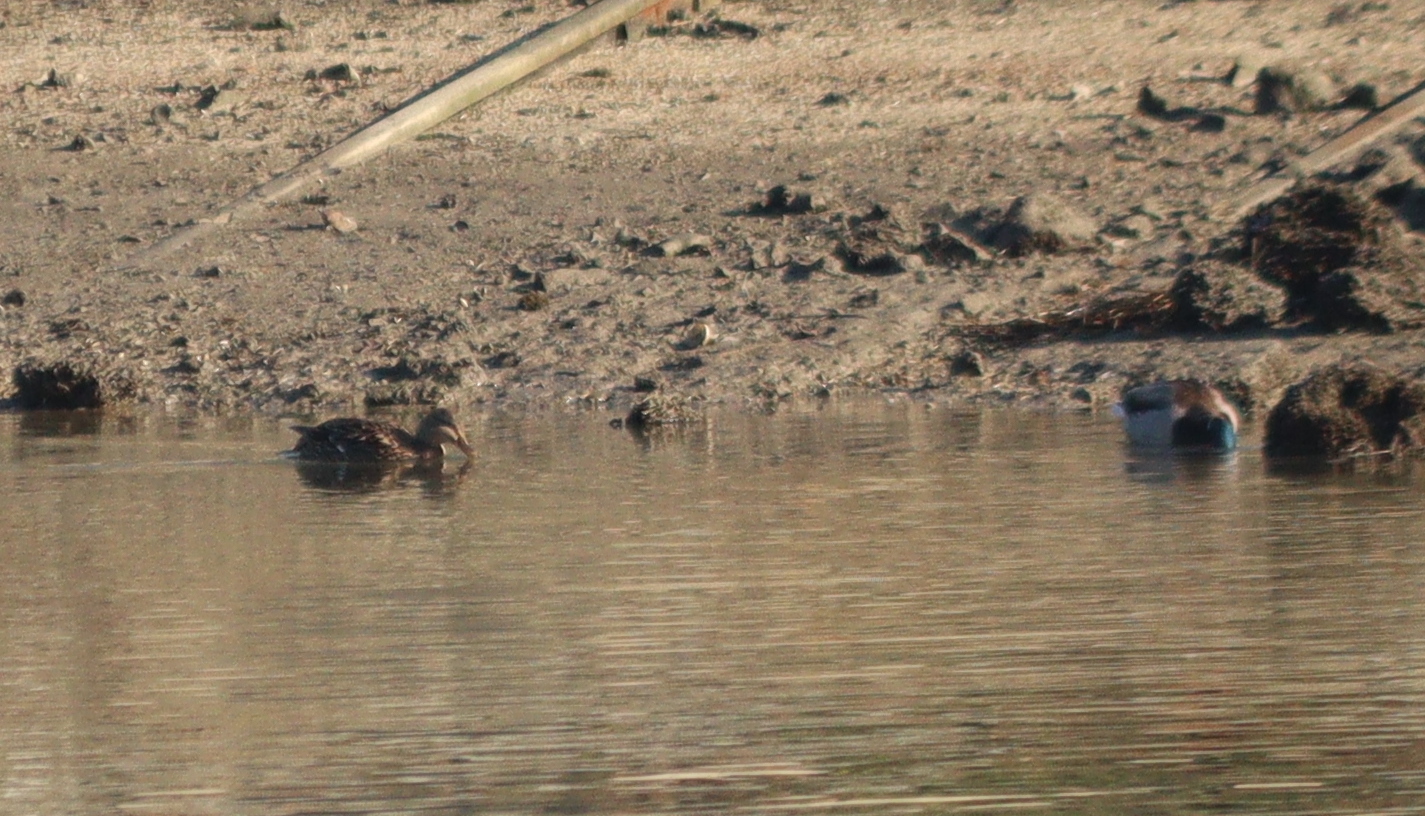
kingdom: Animalia
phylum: Chordata
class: Aves
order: Anseriformes
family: Anatidae
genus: Anas
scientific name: Anas platyrhynchos
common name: Mallard
